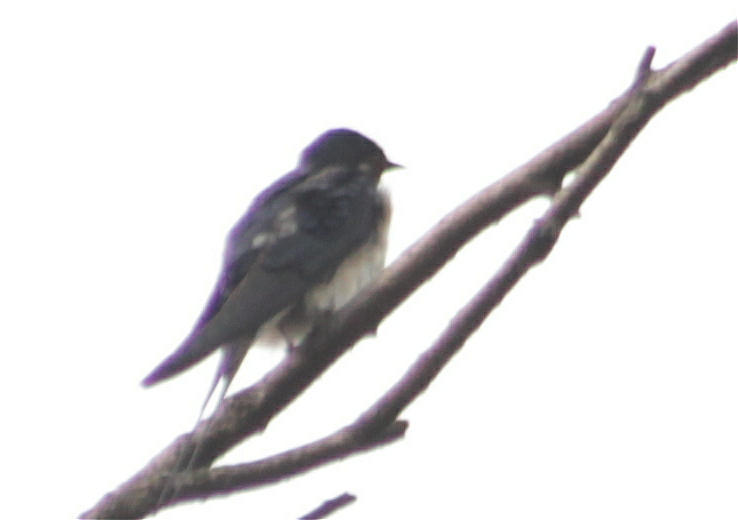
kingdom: Animalia
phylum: Chordata
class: Aves
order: Passeriformes
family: Hirundinidae
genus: Hirundo
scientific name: Hirundo rustica
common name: Barn swallow
